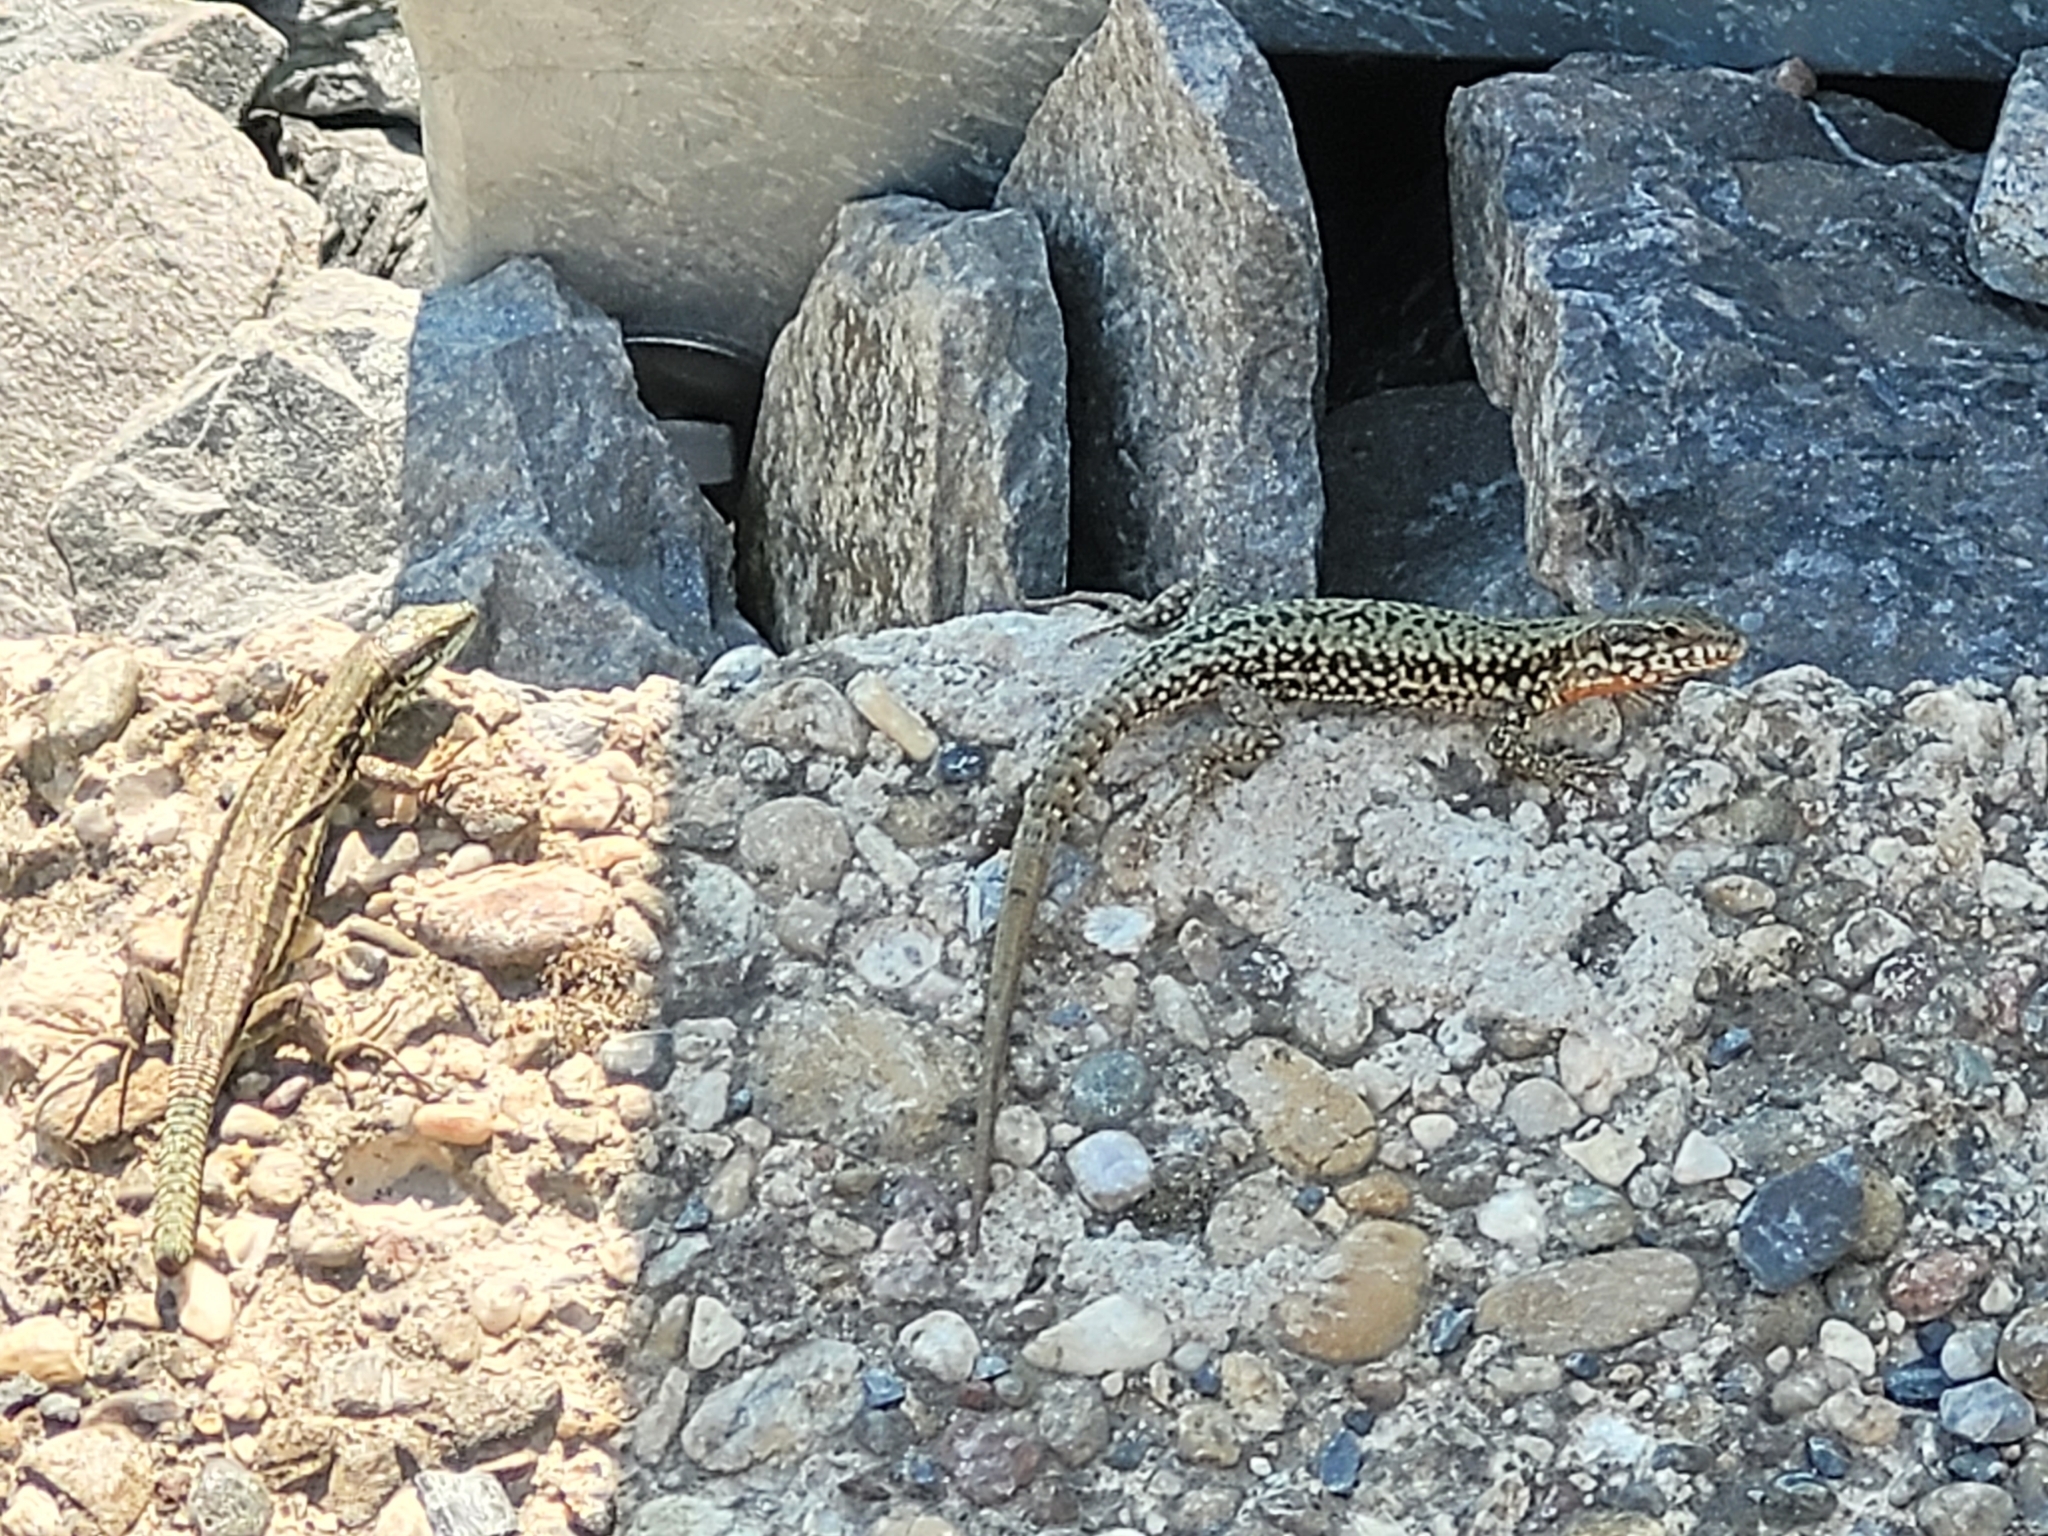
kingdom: Animalia
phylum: Chordata
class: Squamata
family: Lacertidae
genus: Podarcis
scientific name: Podarcis muralis
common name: Common wall lizard
